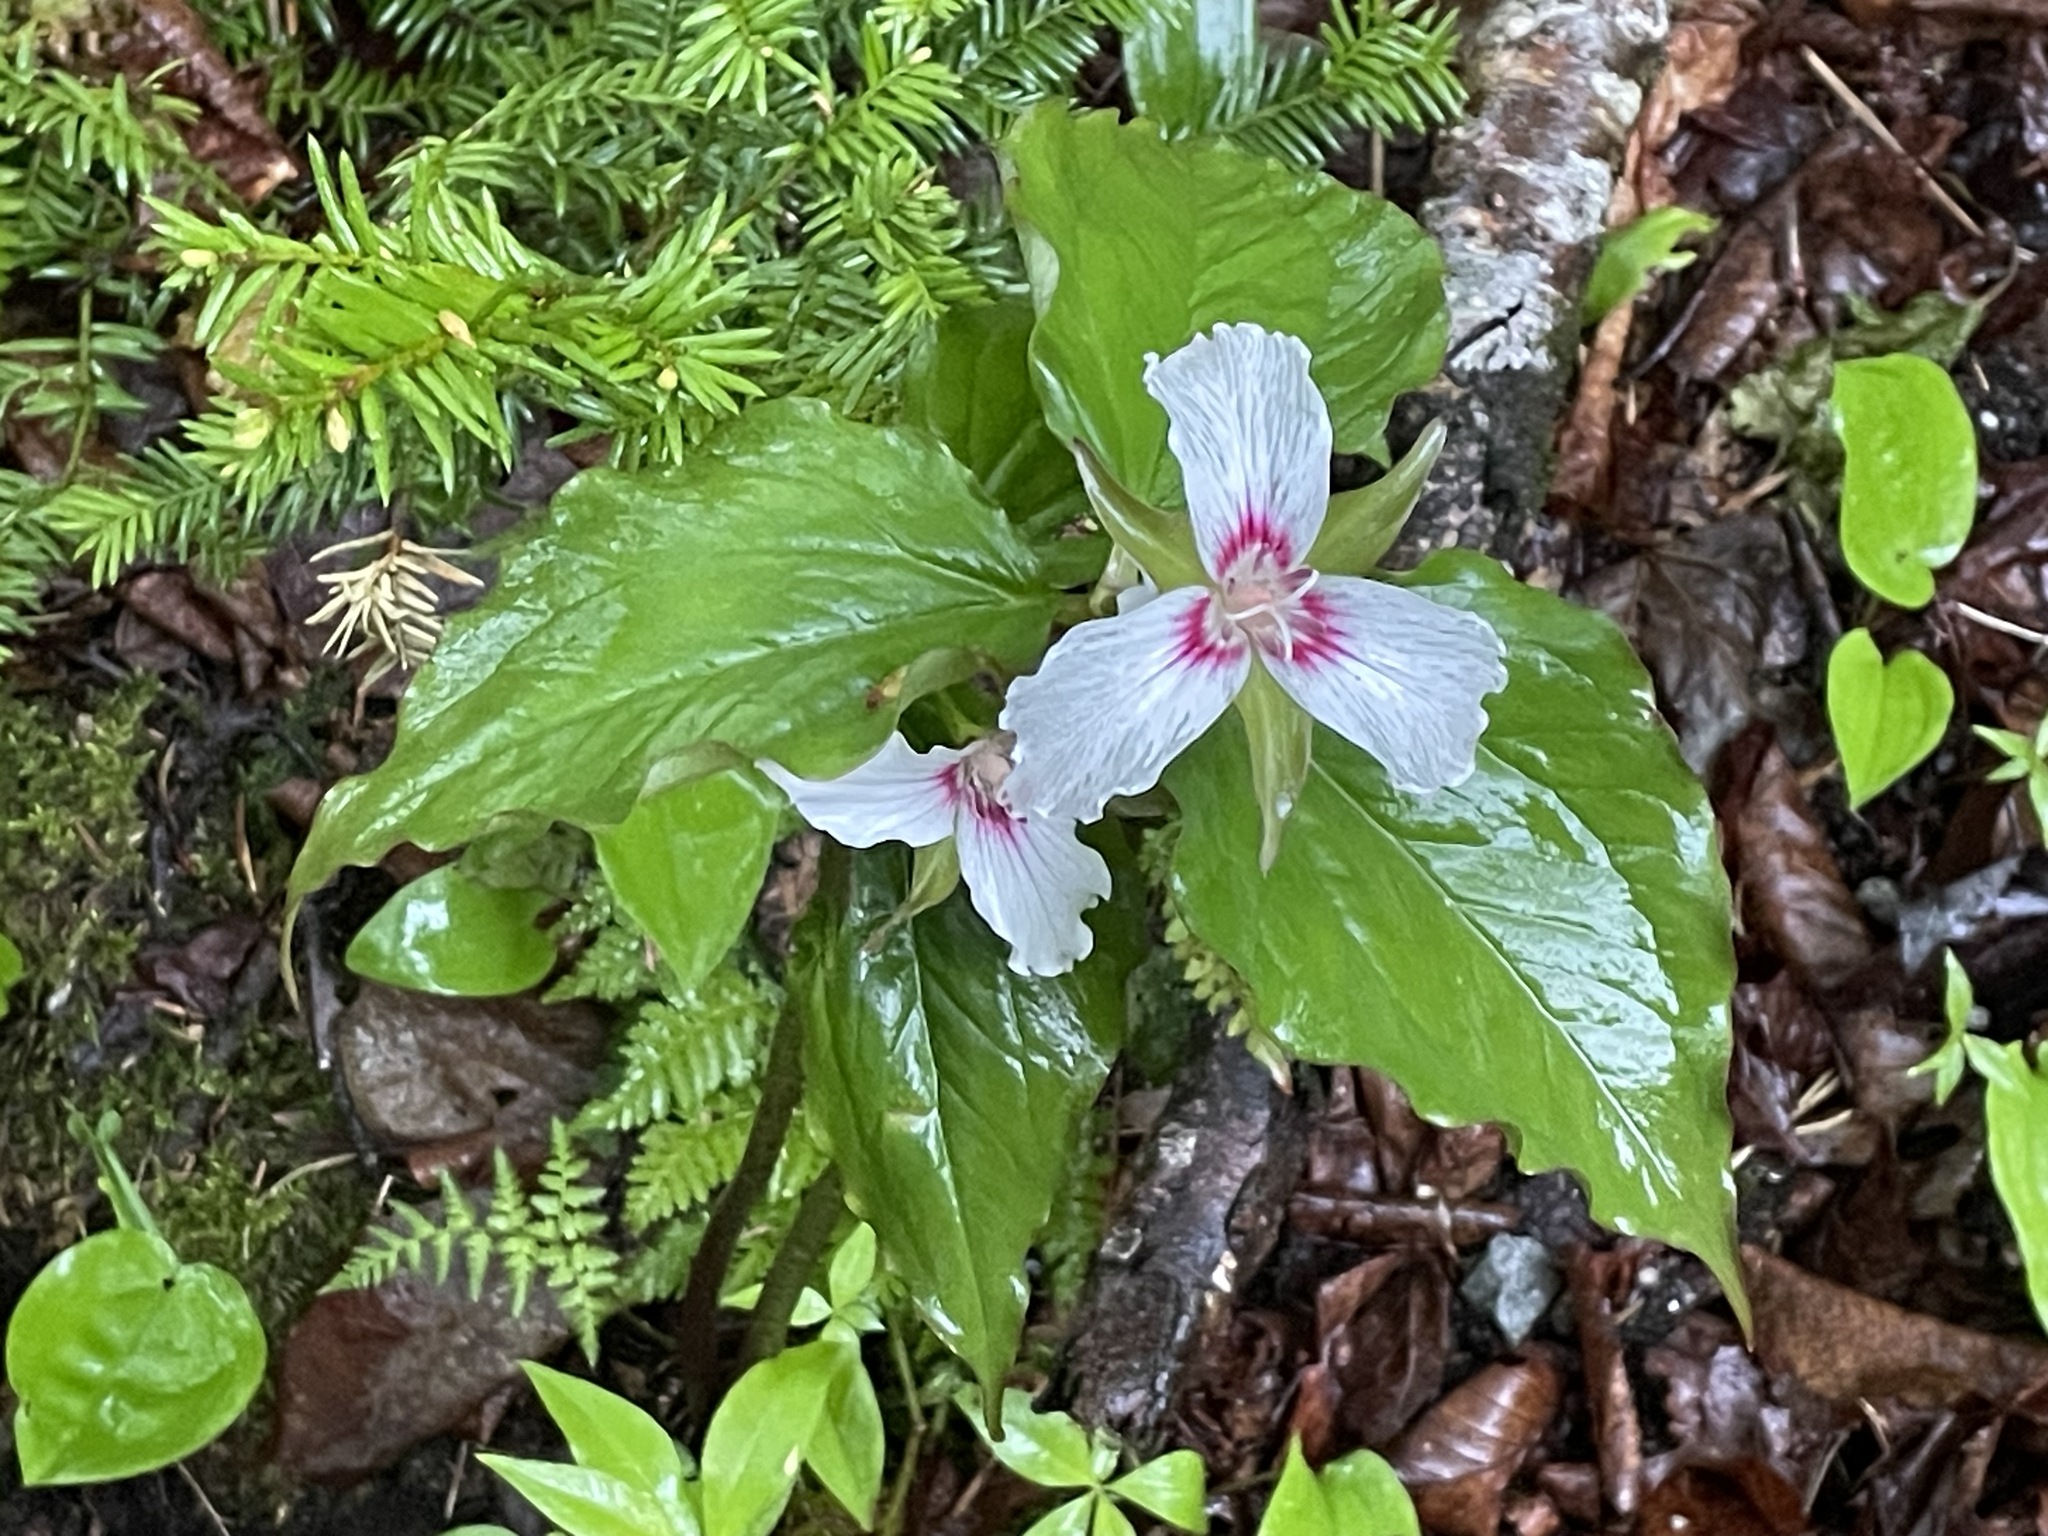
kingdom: Plantae
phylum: Tracheophyta
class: Liliopsida
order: Liliales
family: Melanthiaceae
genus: Trillium
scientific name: Trillium undulatum
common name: Paint trillium
